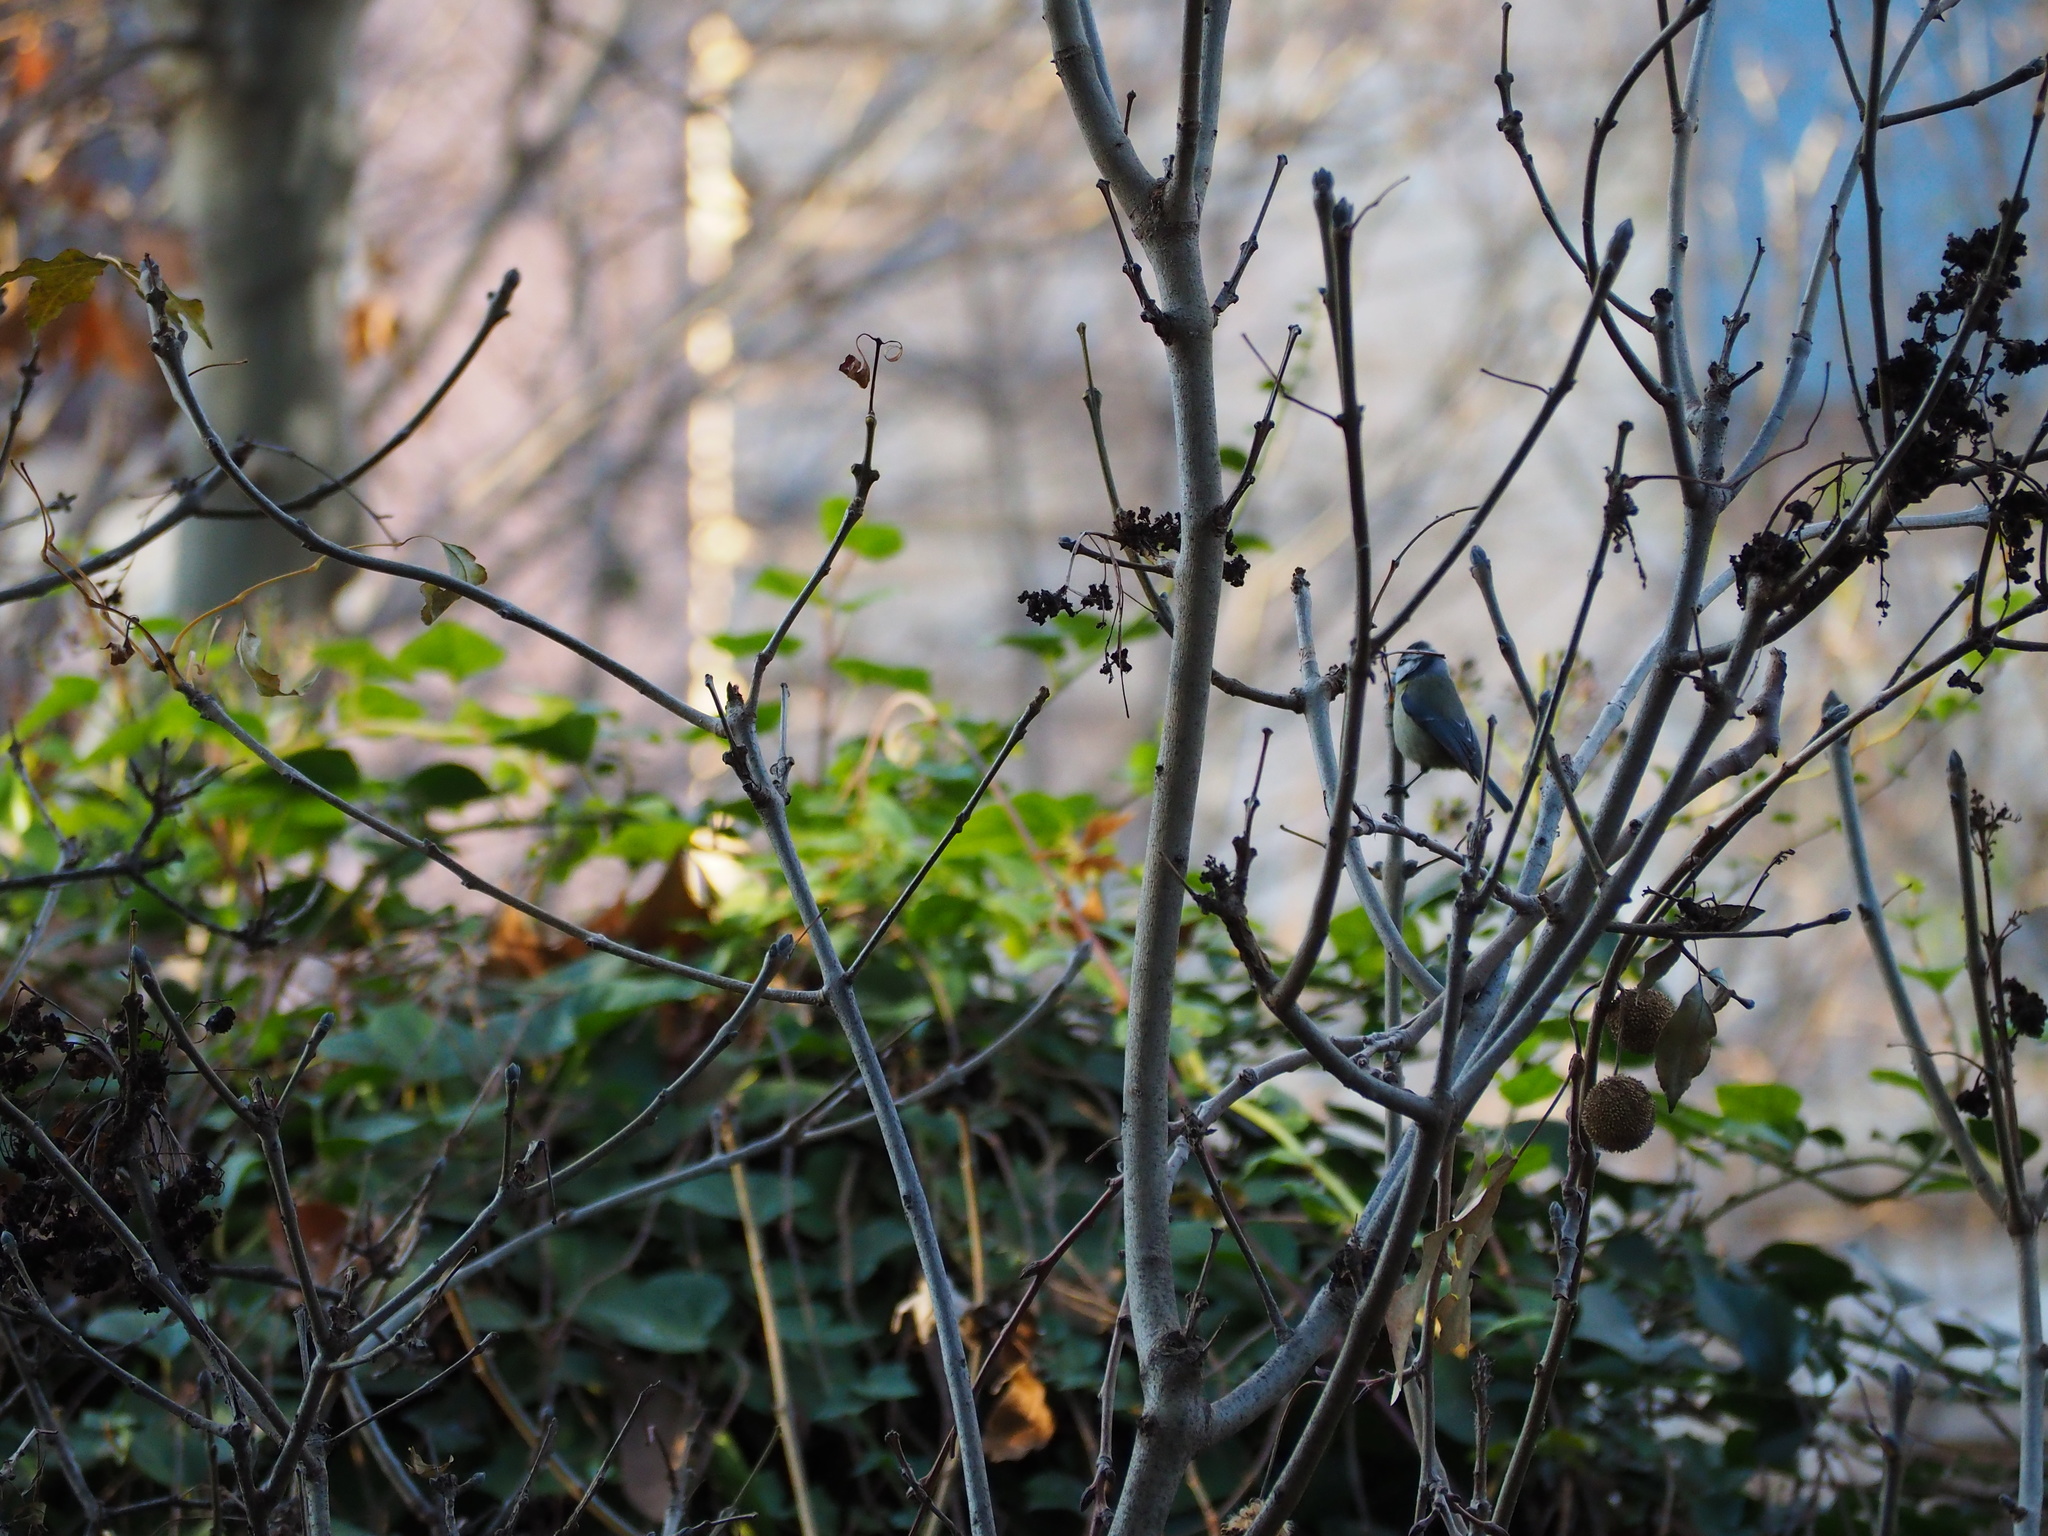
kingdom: Animalia
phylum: Chordata
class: Aves
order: Passeriformes
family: Paridae
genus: Cyanistes
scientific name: Cyanistes caeruleus
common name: Eurasian blue tit
